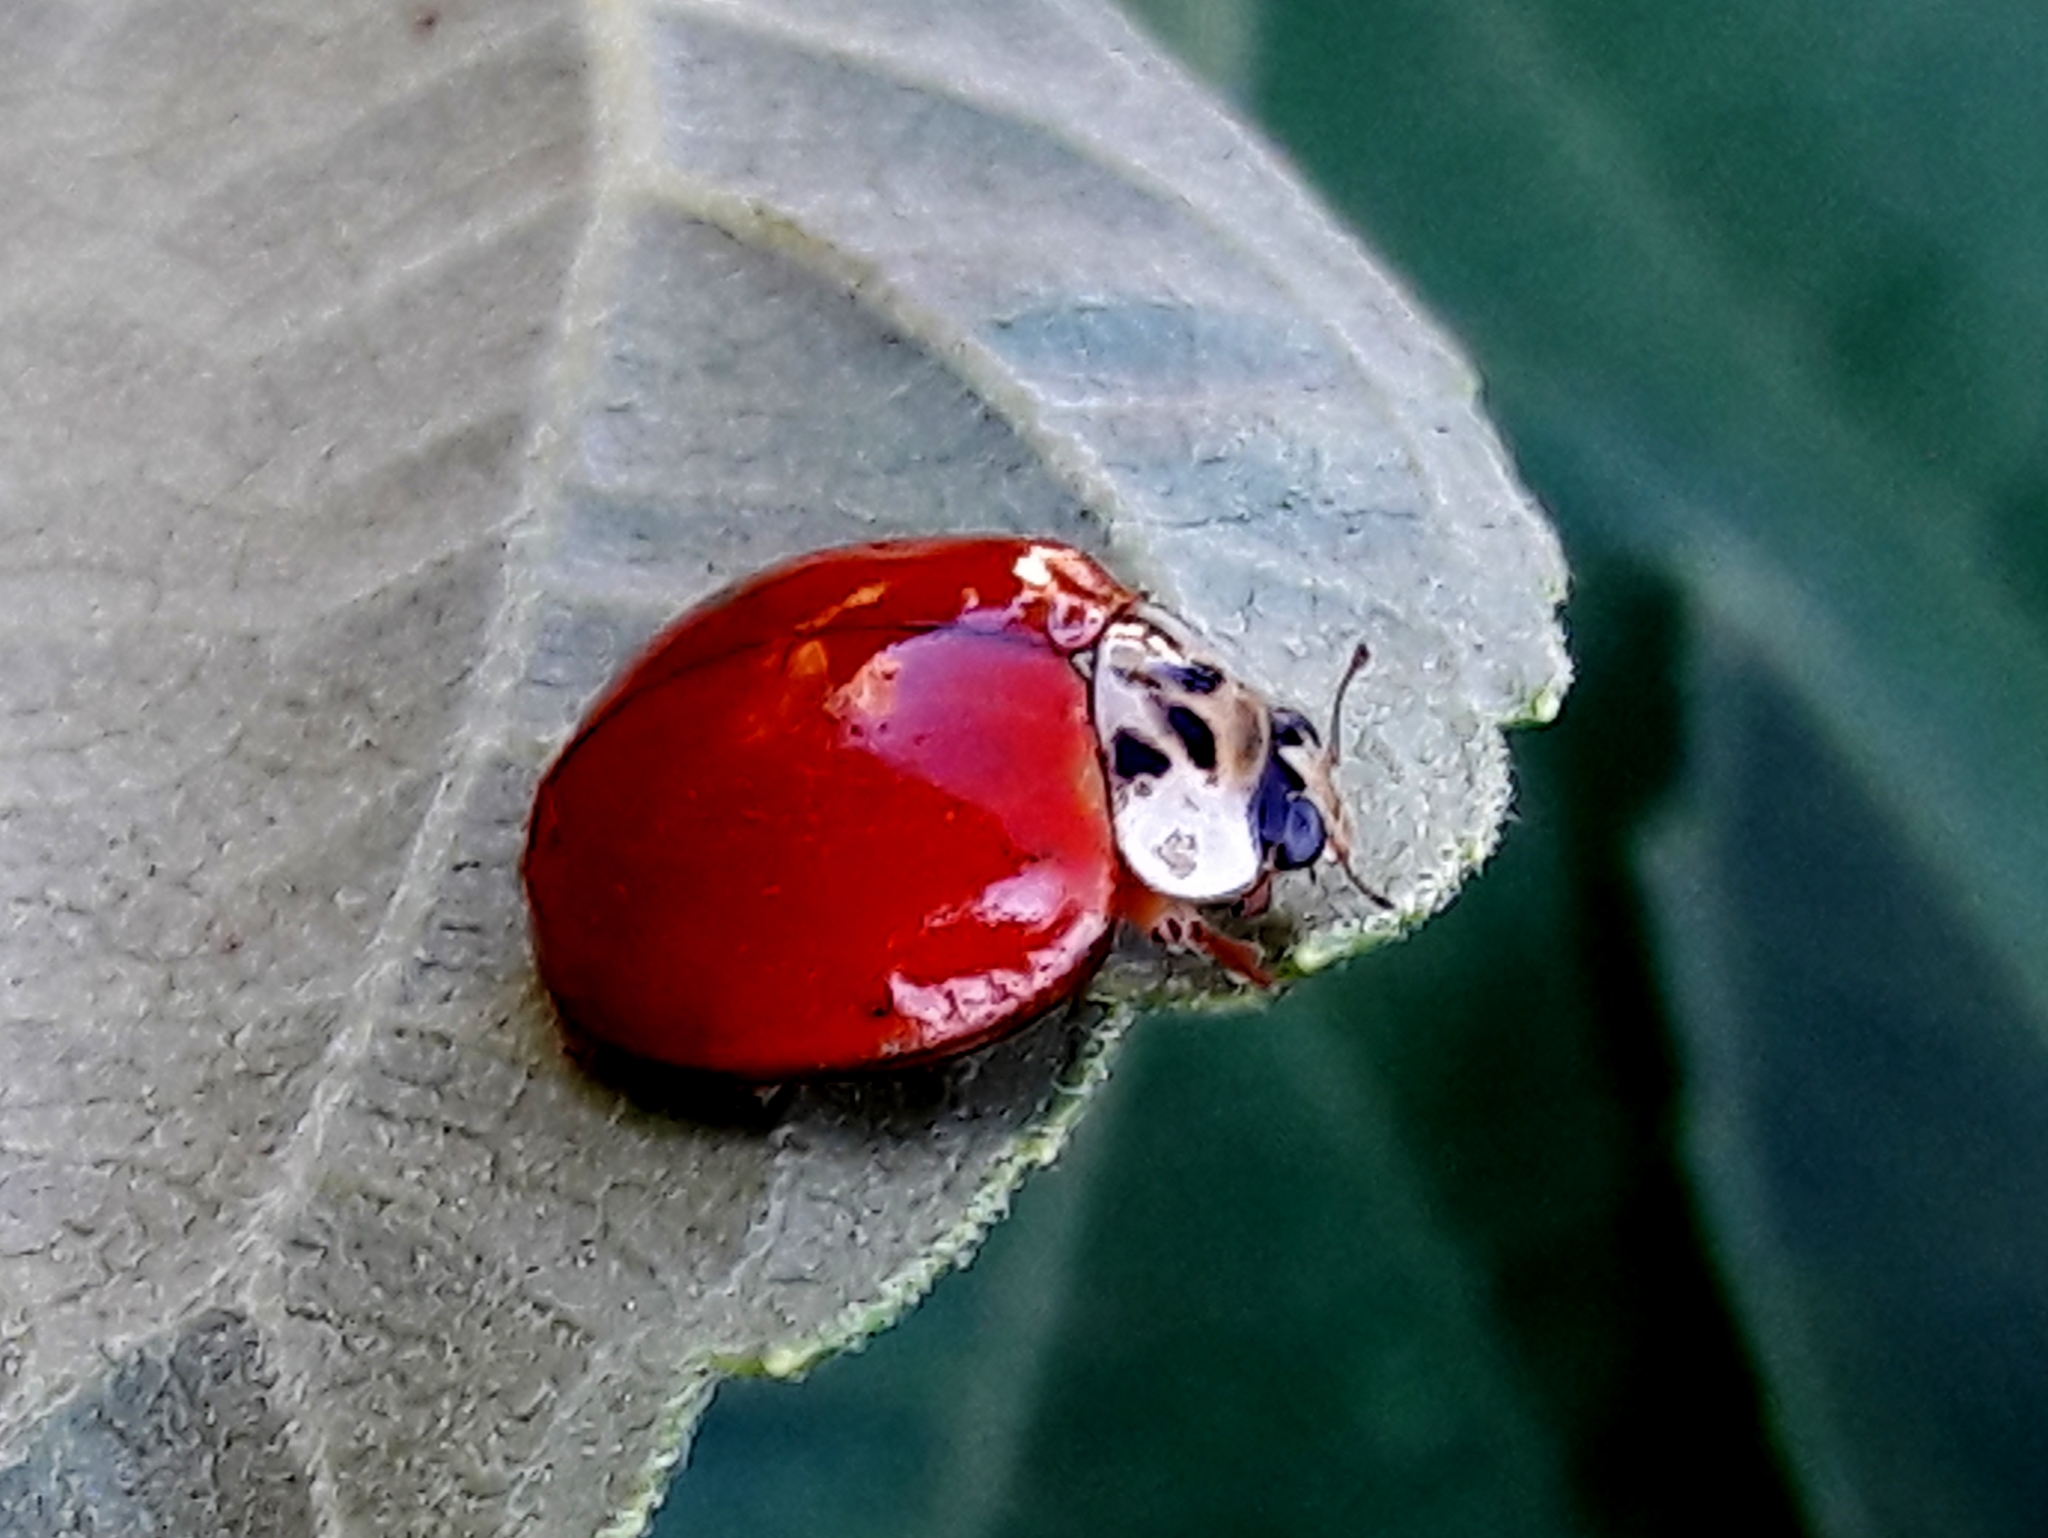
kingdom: Animalia
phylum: Arthropoda
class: Insecta
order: Coleoptera
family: Coccinellidae
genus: Harmonia
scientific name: Harmonia axyridis
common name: Harlequin ladybird
